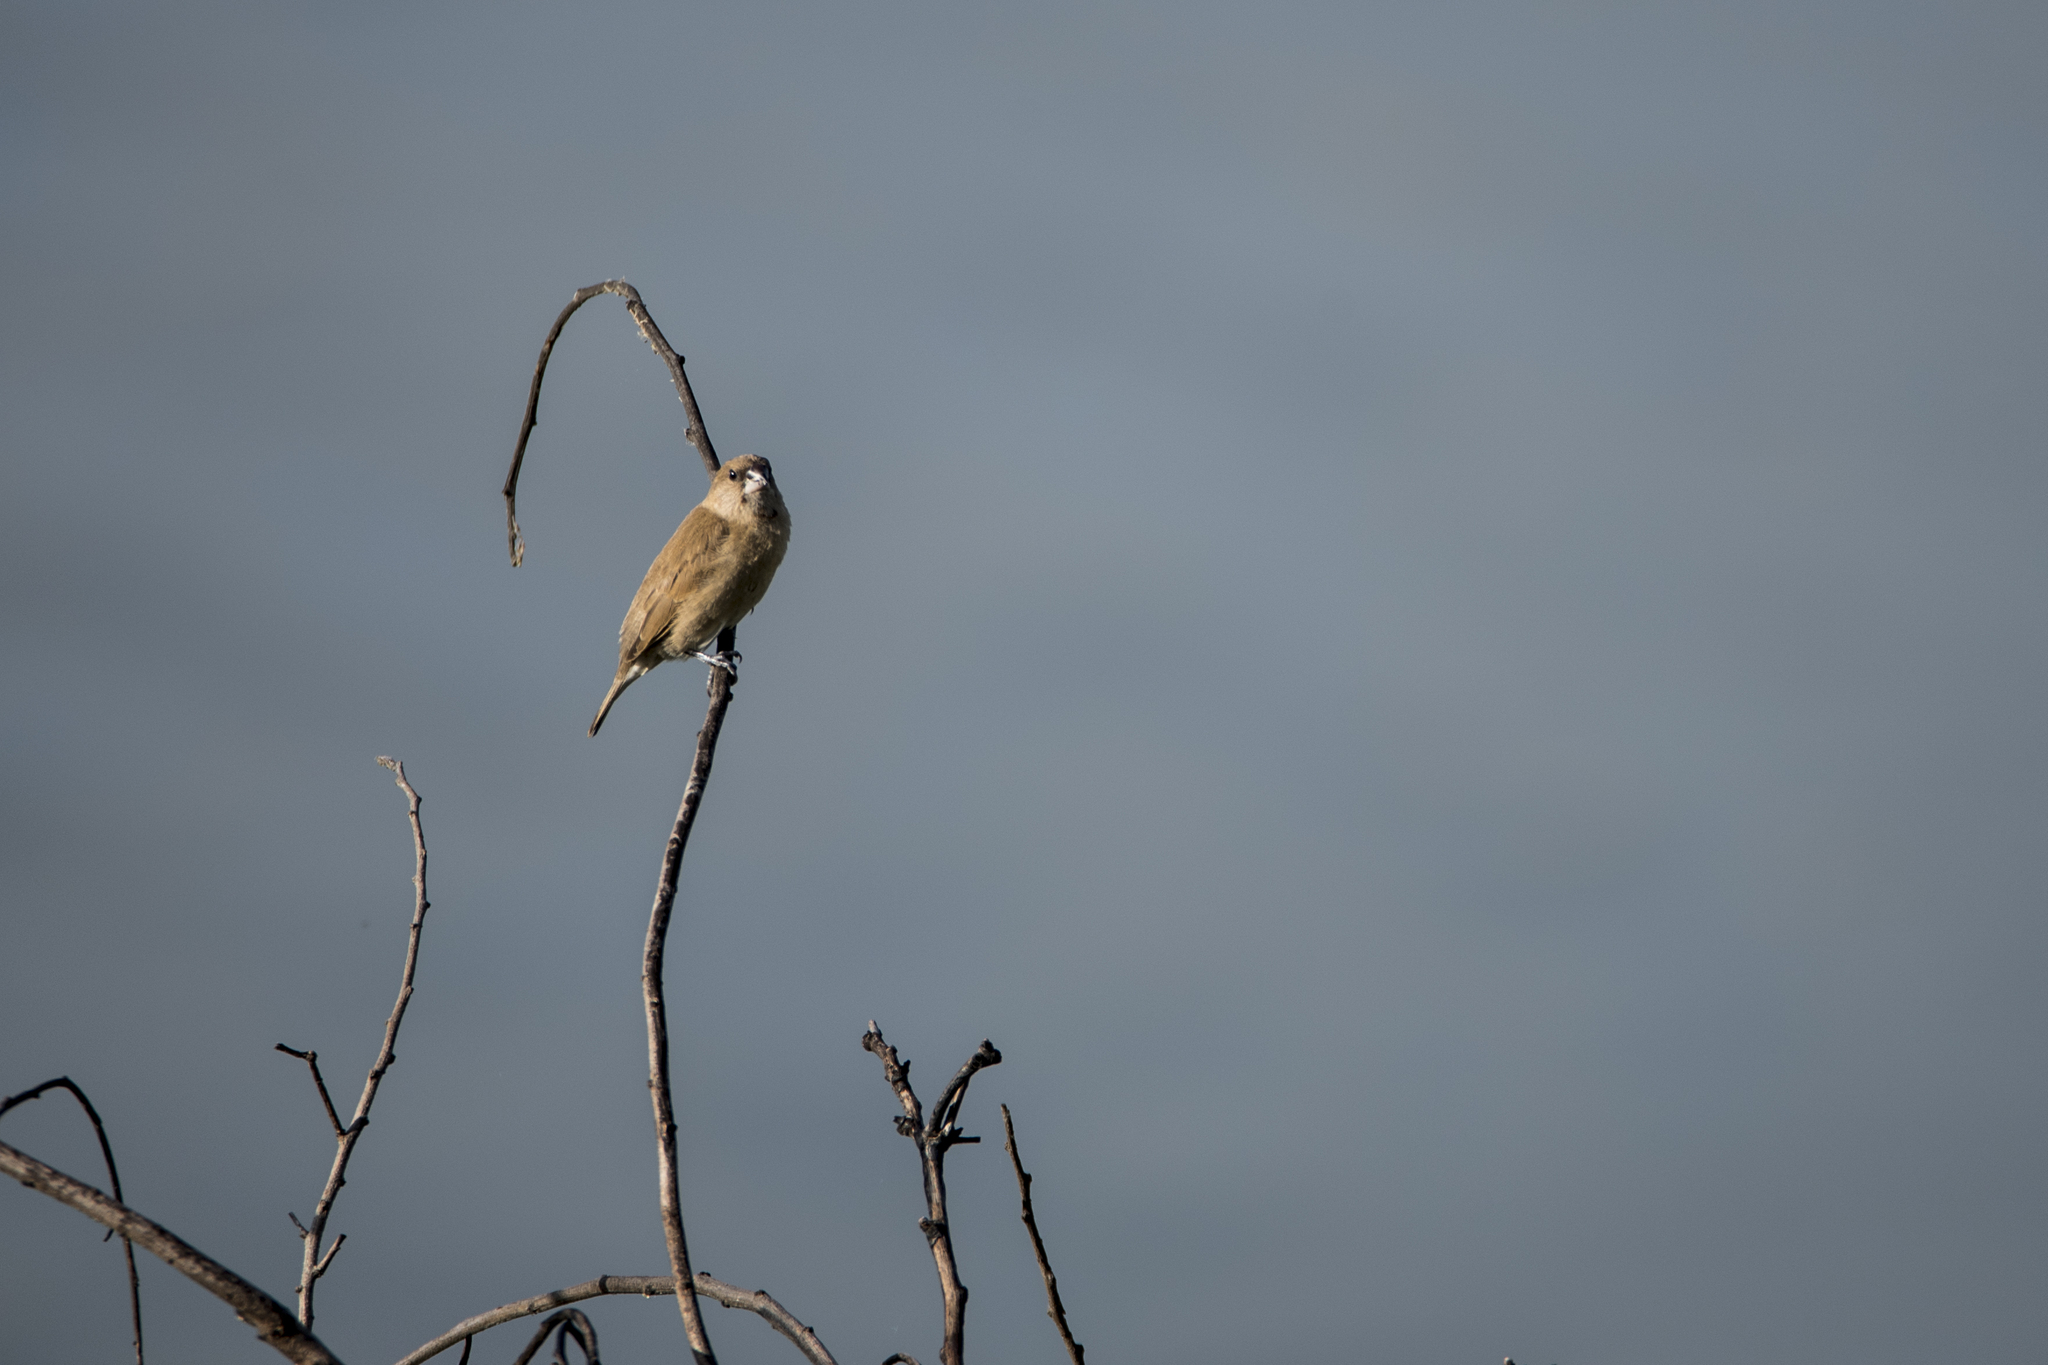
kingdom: Animalia
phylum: Chordata
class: Aves
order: Passeriformes
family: Estrildidae
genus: Lonchura
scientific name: Lonchura punctulata
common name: Scaly-breasted munia
